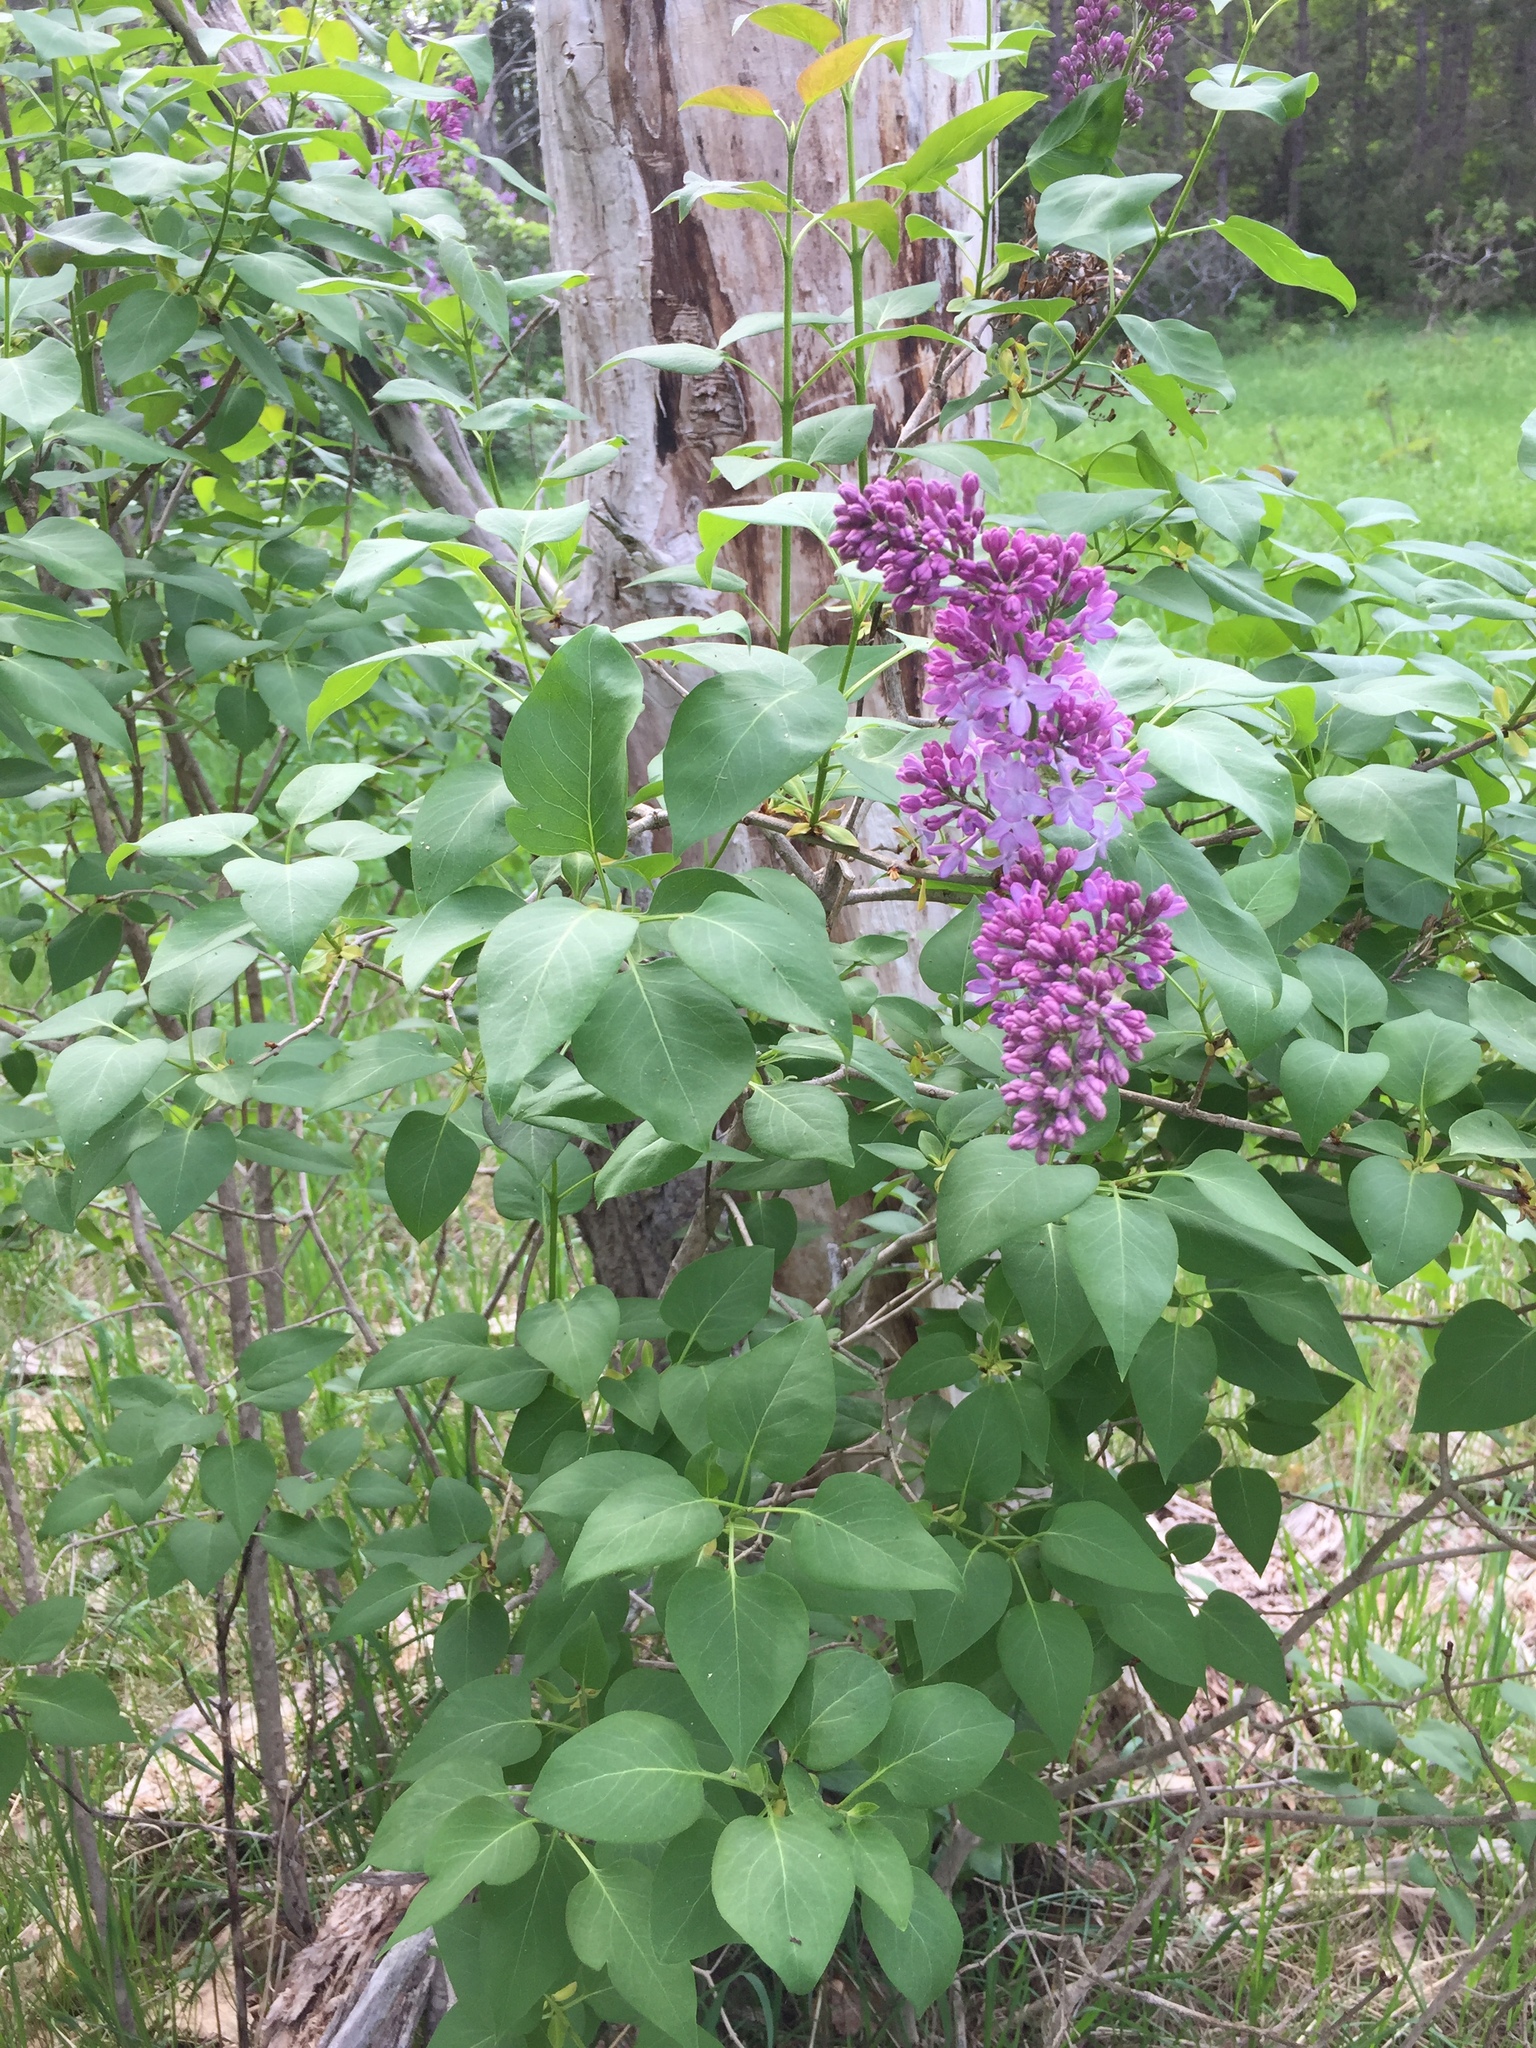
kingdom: Plantae
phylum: Tracheophyta
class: Magnoliopsida
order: Lamiales
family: Oleaceae
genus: Syringa
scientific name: Syringa vulgaris
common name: Common lilac
